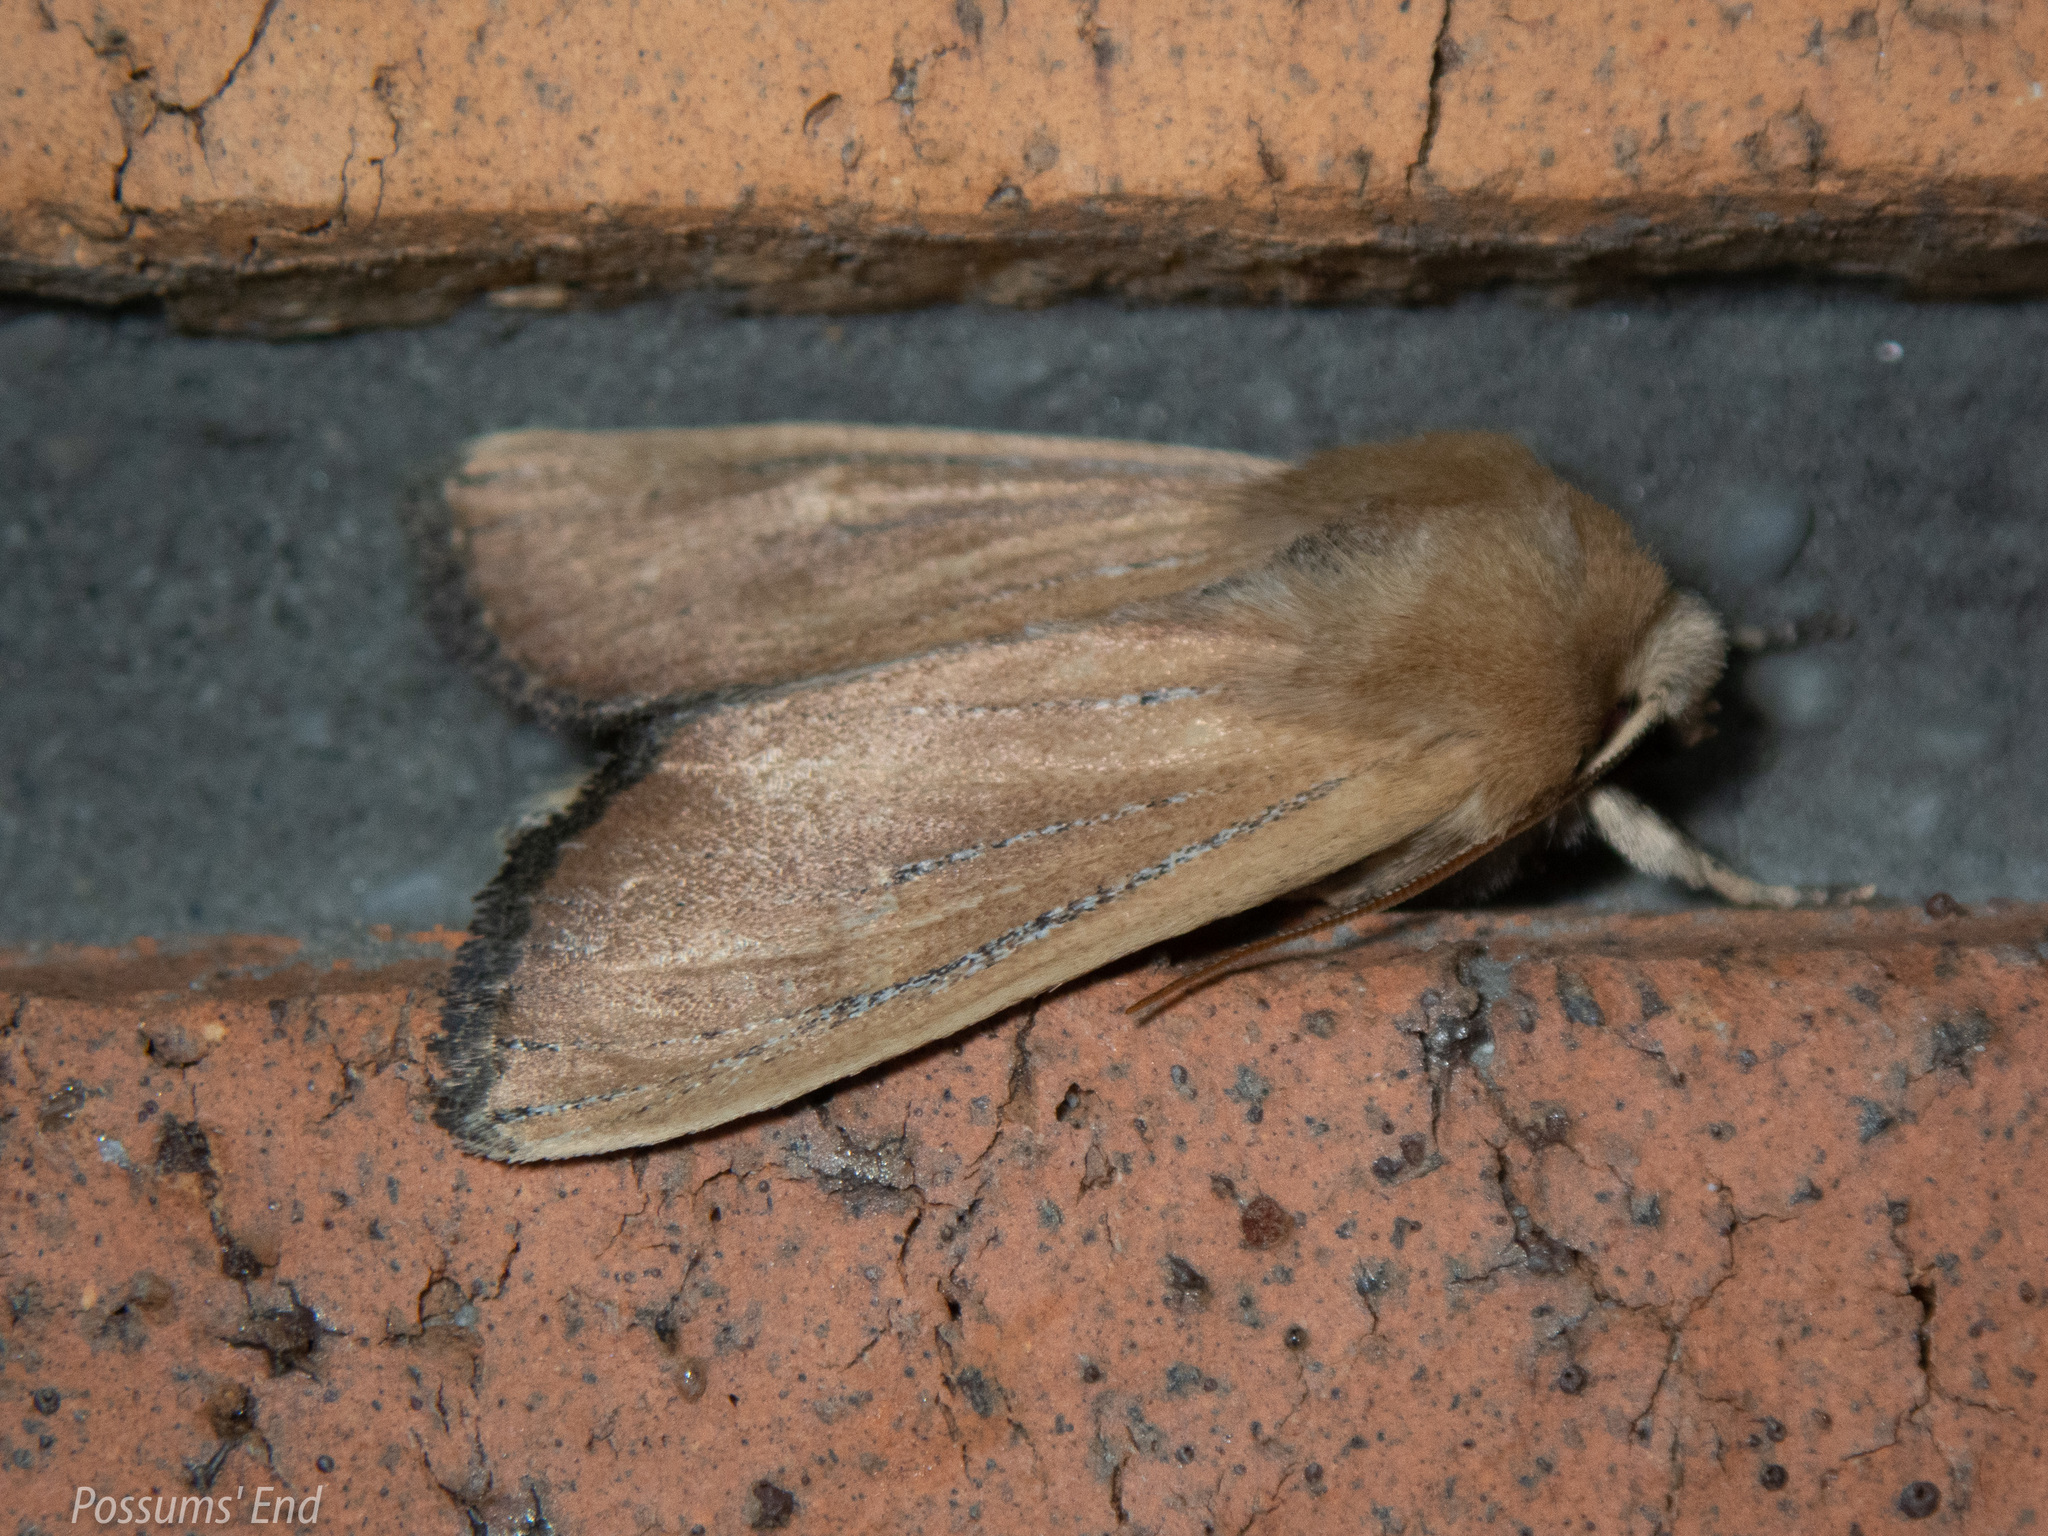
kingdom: Animalia
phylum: Arthropoda
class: Insecta
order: Lepidoptera
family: Noctuidae
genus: Ichneutica
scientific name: Ichneutica blenheimensis
